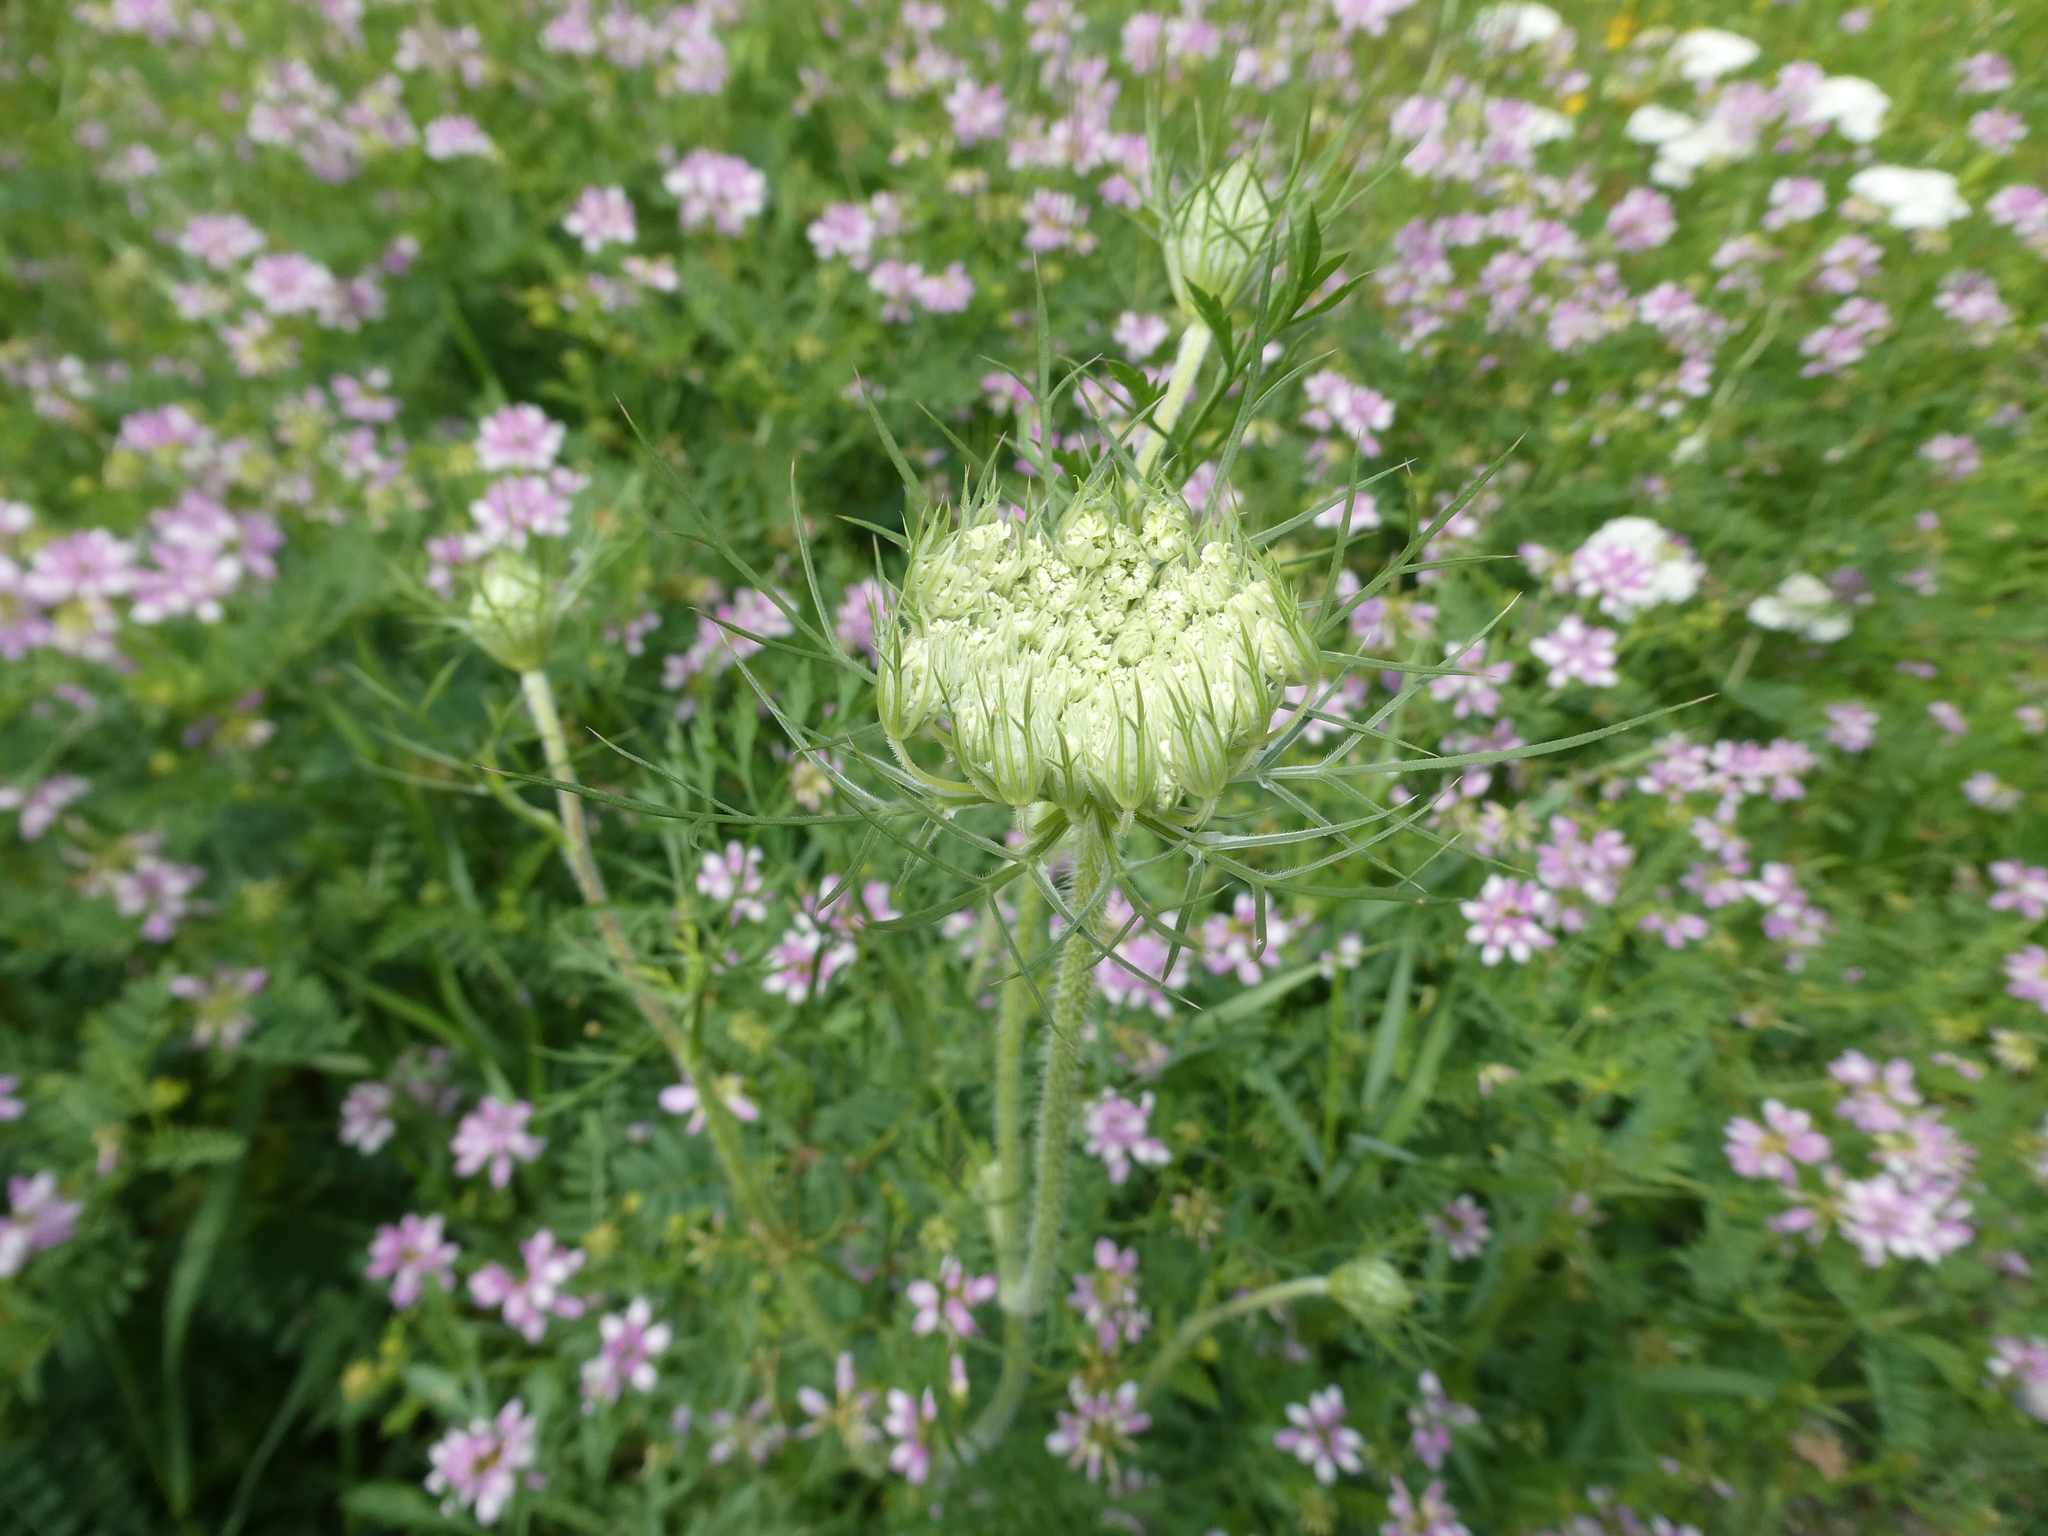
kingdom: Plantae
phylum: Tracheophyta
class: Magnoliopsida
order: Apiales
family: Apiaceae
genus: Daucus
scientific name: Daucus carota
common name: Wild carrot
